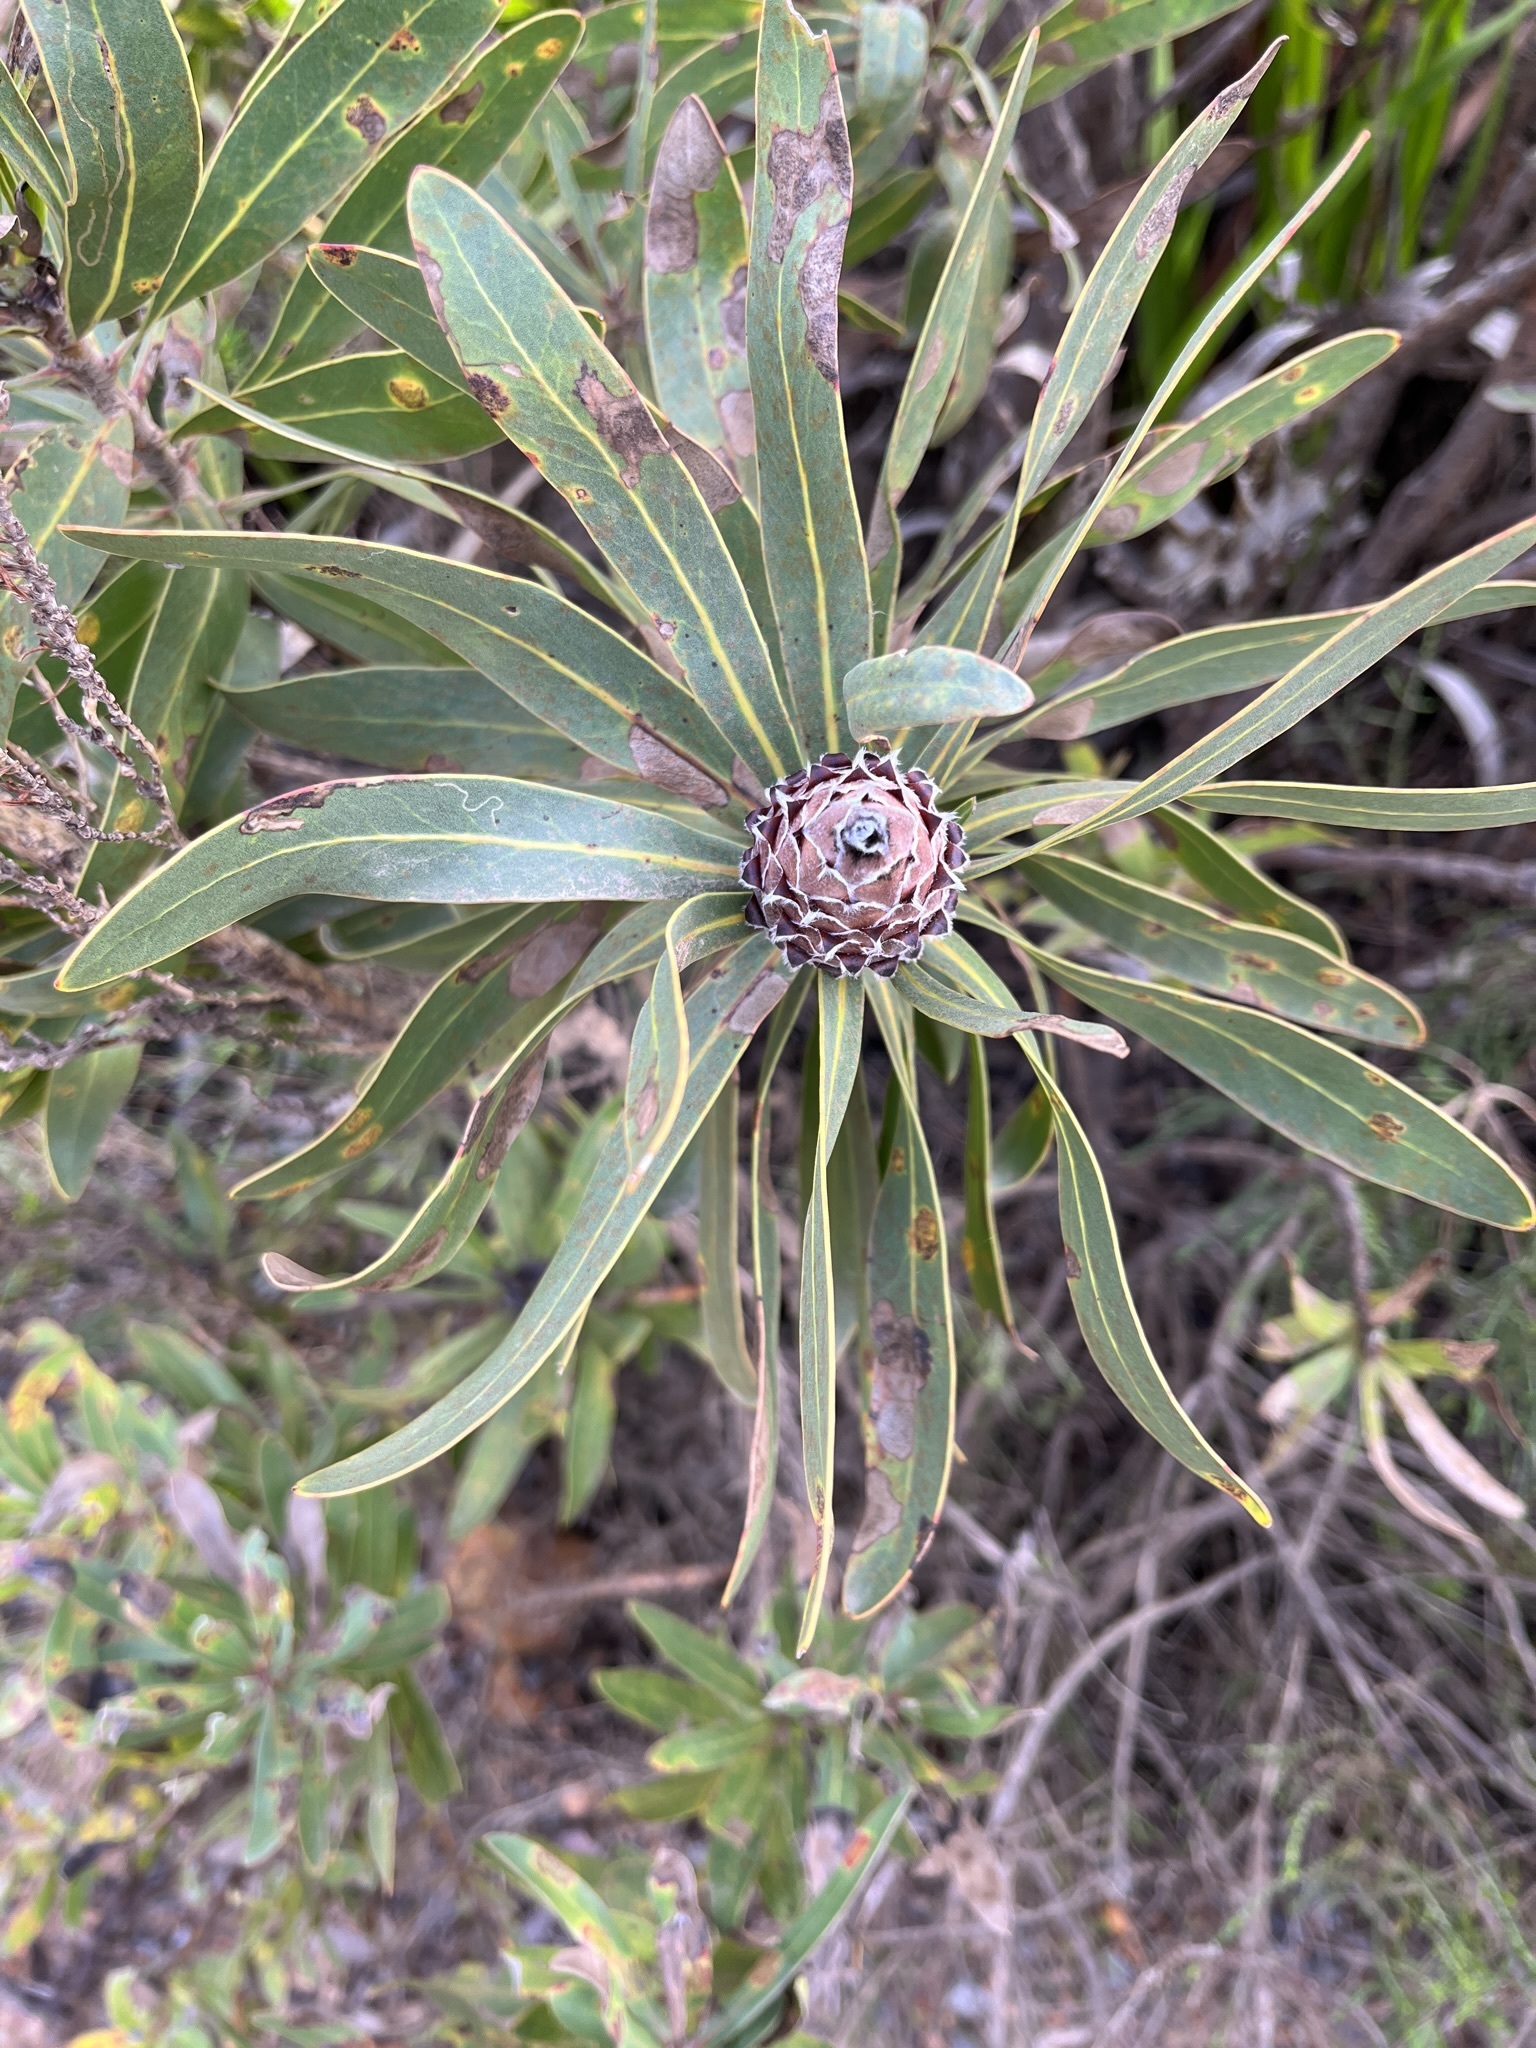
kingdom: Plantae
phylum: Tracheophyta
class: Magnoliopsida
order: Proteales
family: Proteaceae
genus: Protea
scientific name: Protea lepidocarpodendron
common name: Black-bearded protea
